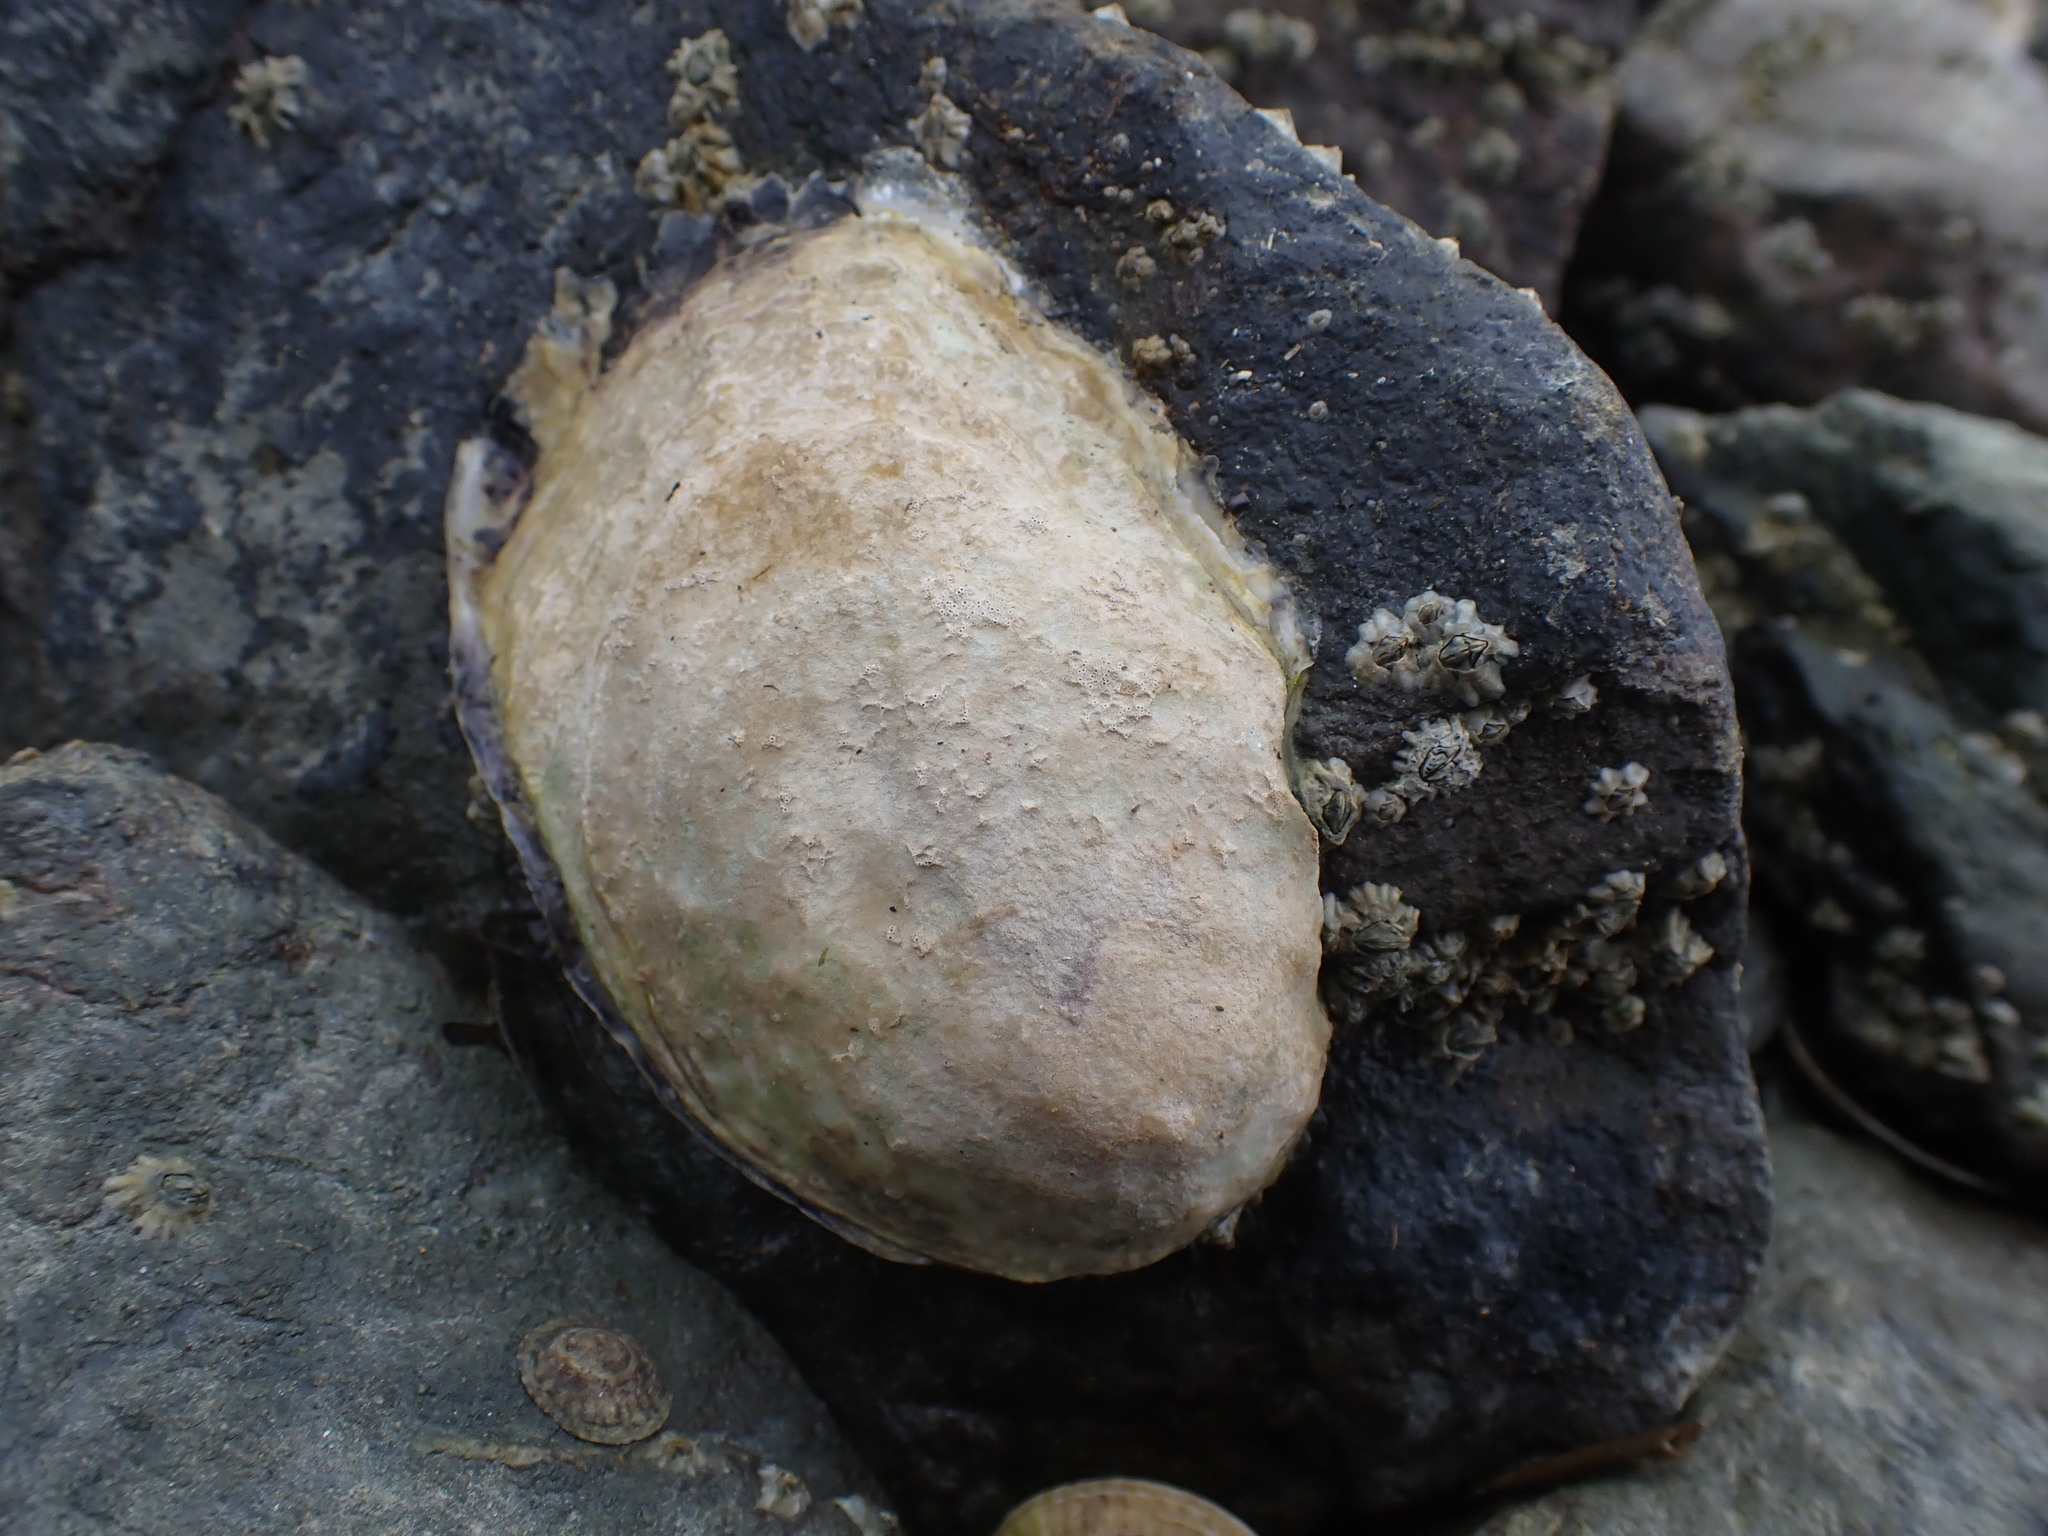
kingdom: Animalia
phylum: Mollusca
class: Bivalvia
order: Ostreida
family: Ostreidae
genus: Magallana
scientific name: Magallana gigas
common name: Pacific oyster
